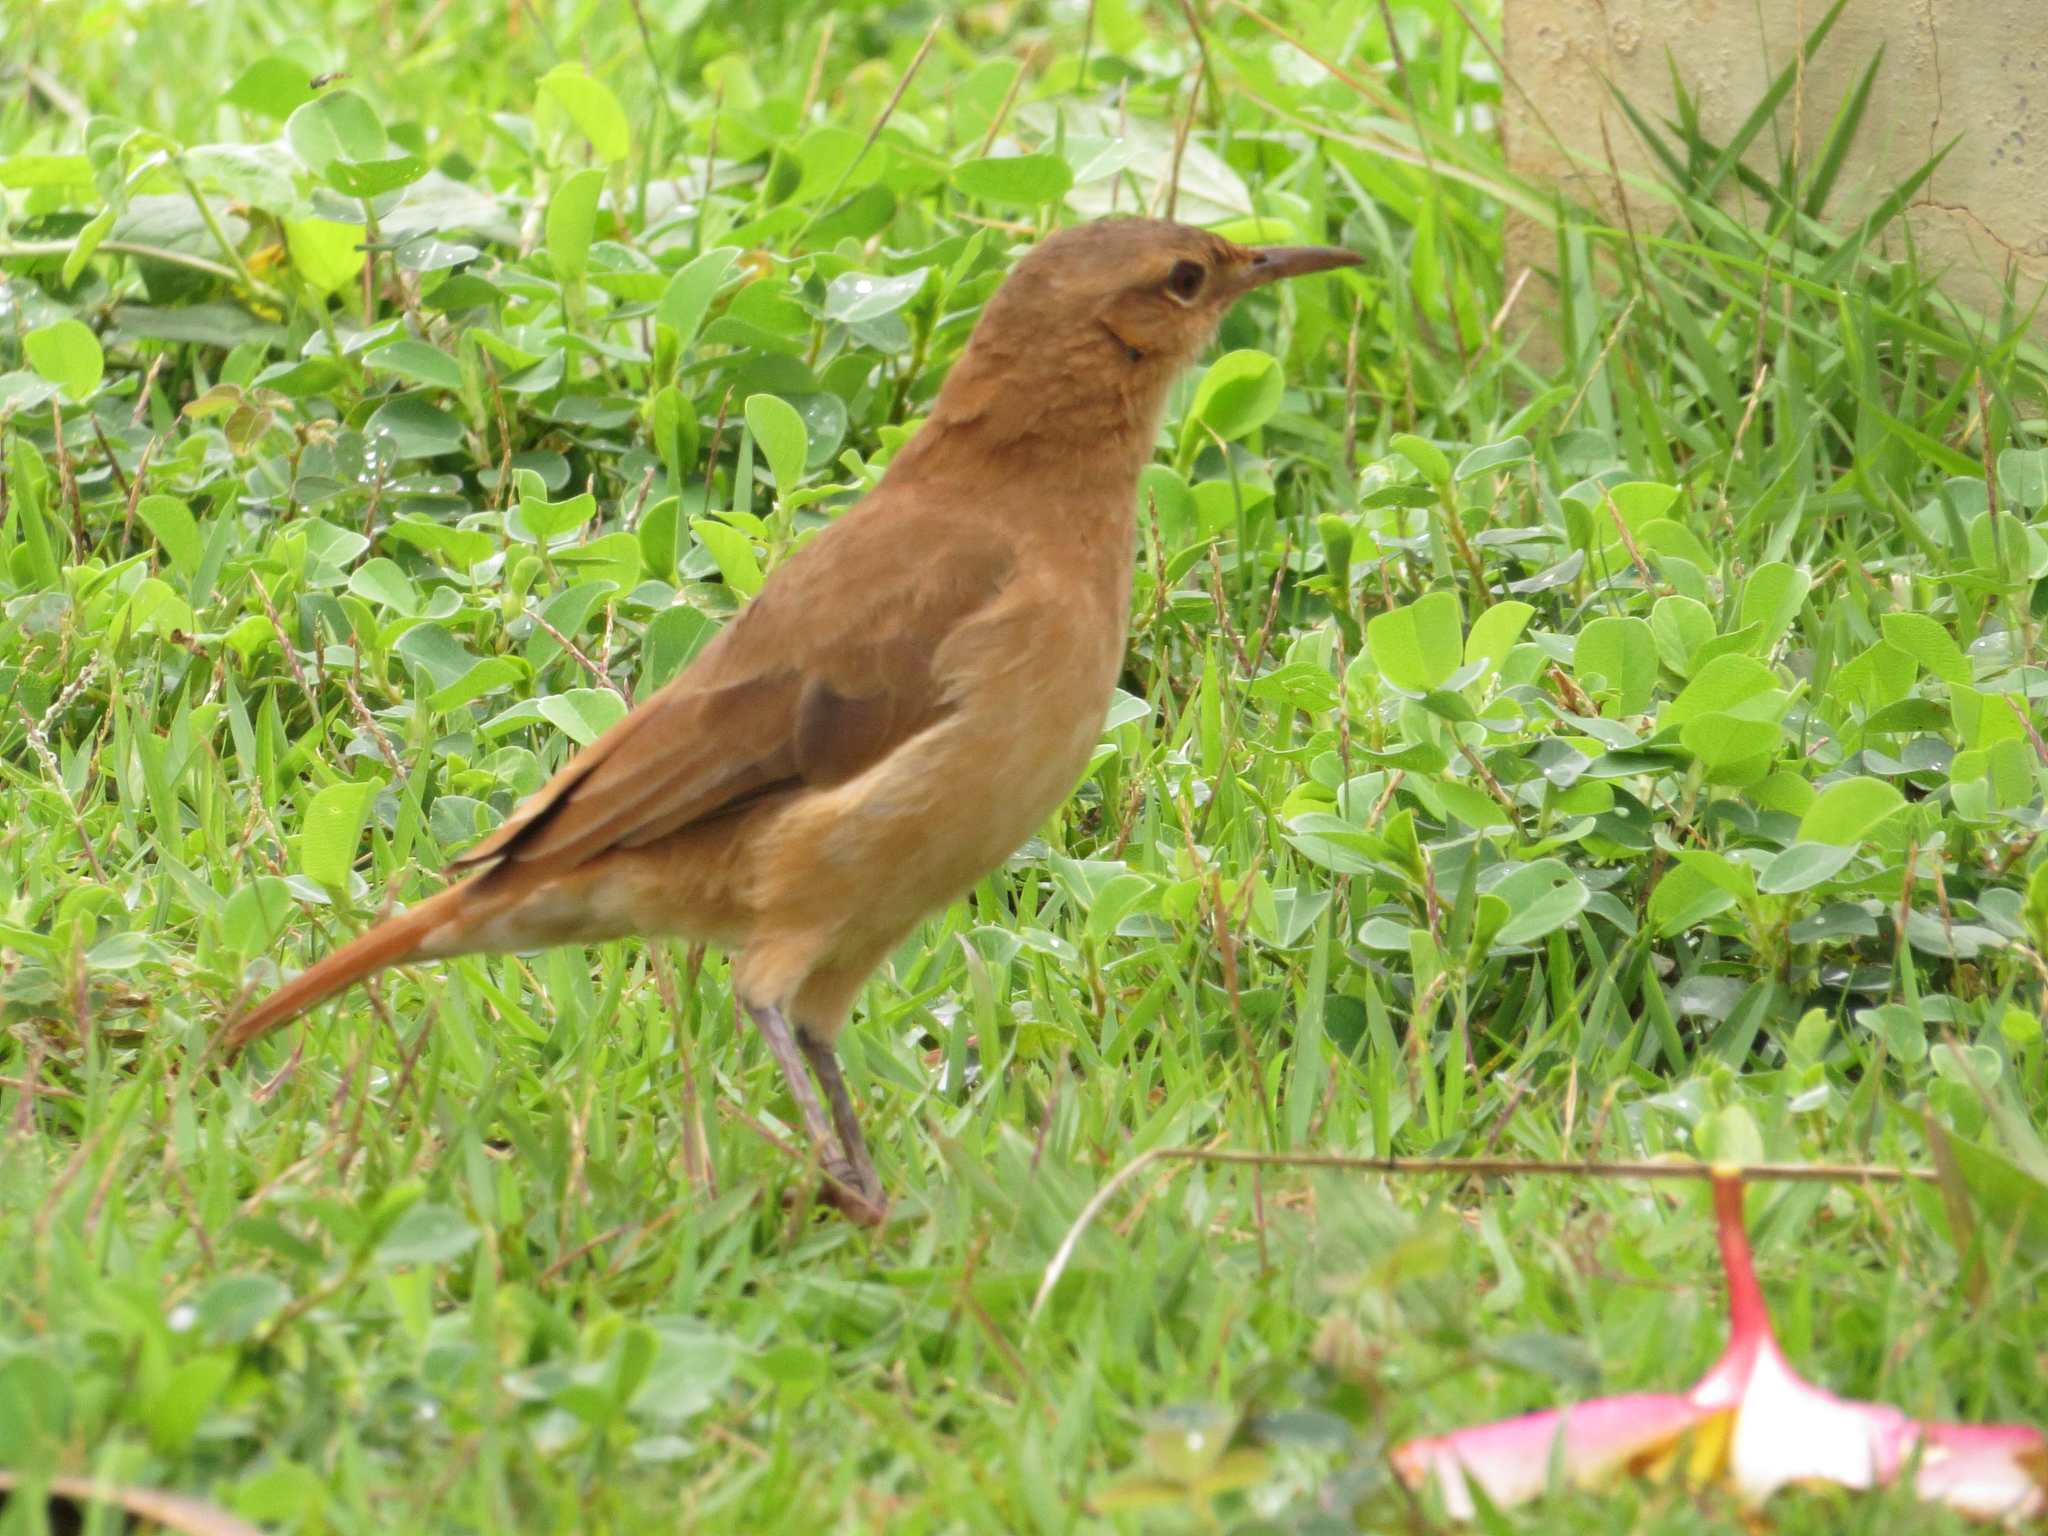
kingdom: Animalia
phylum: Chordata
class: Aves
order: Passeriformes
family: Furnariidae
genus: Furnarius
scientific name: Furnarius rufus
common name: Rufous hornero
